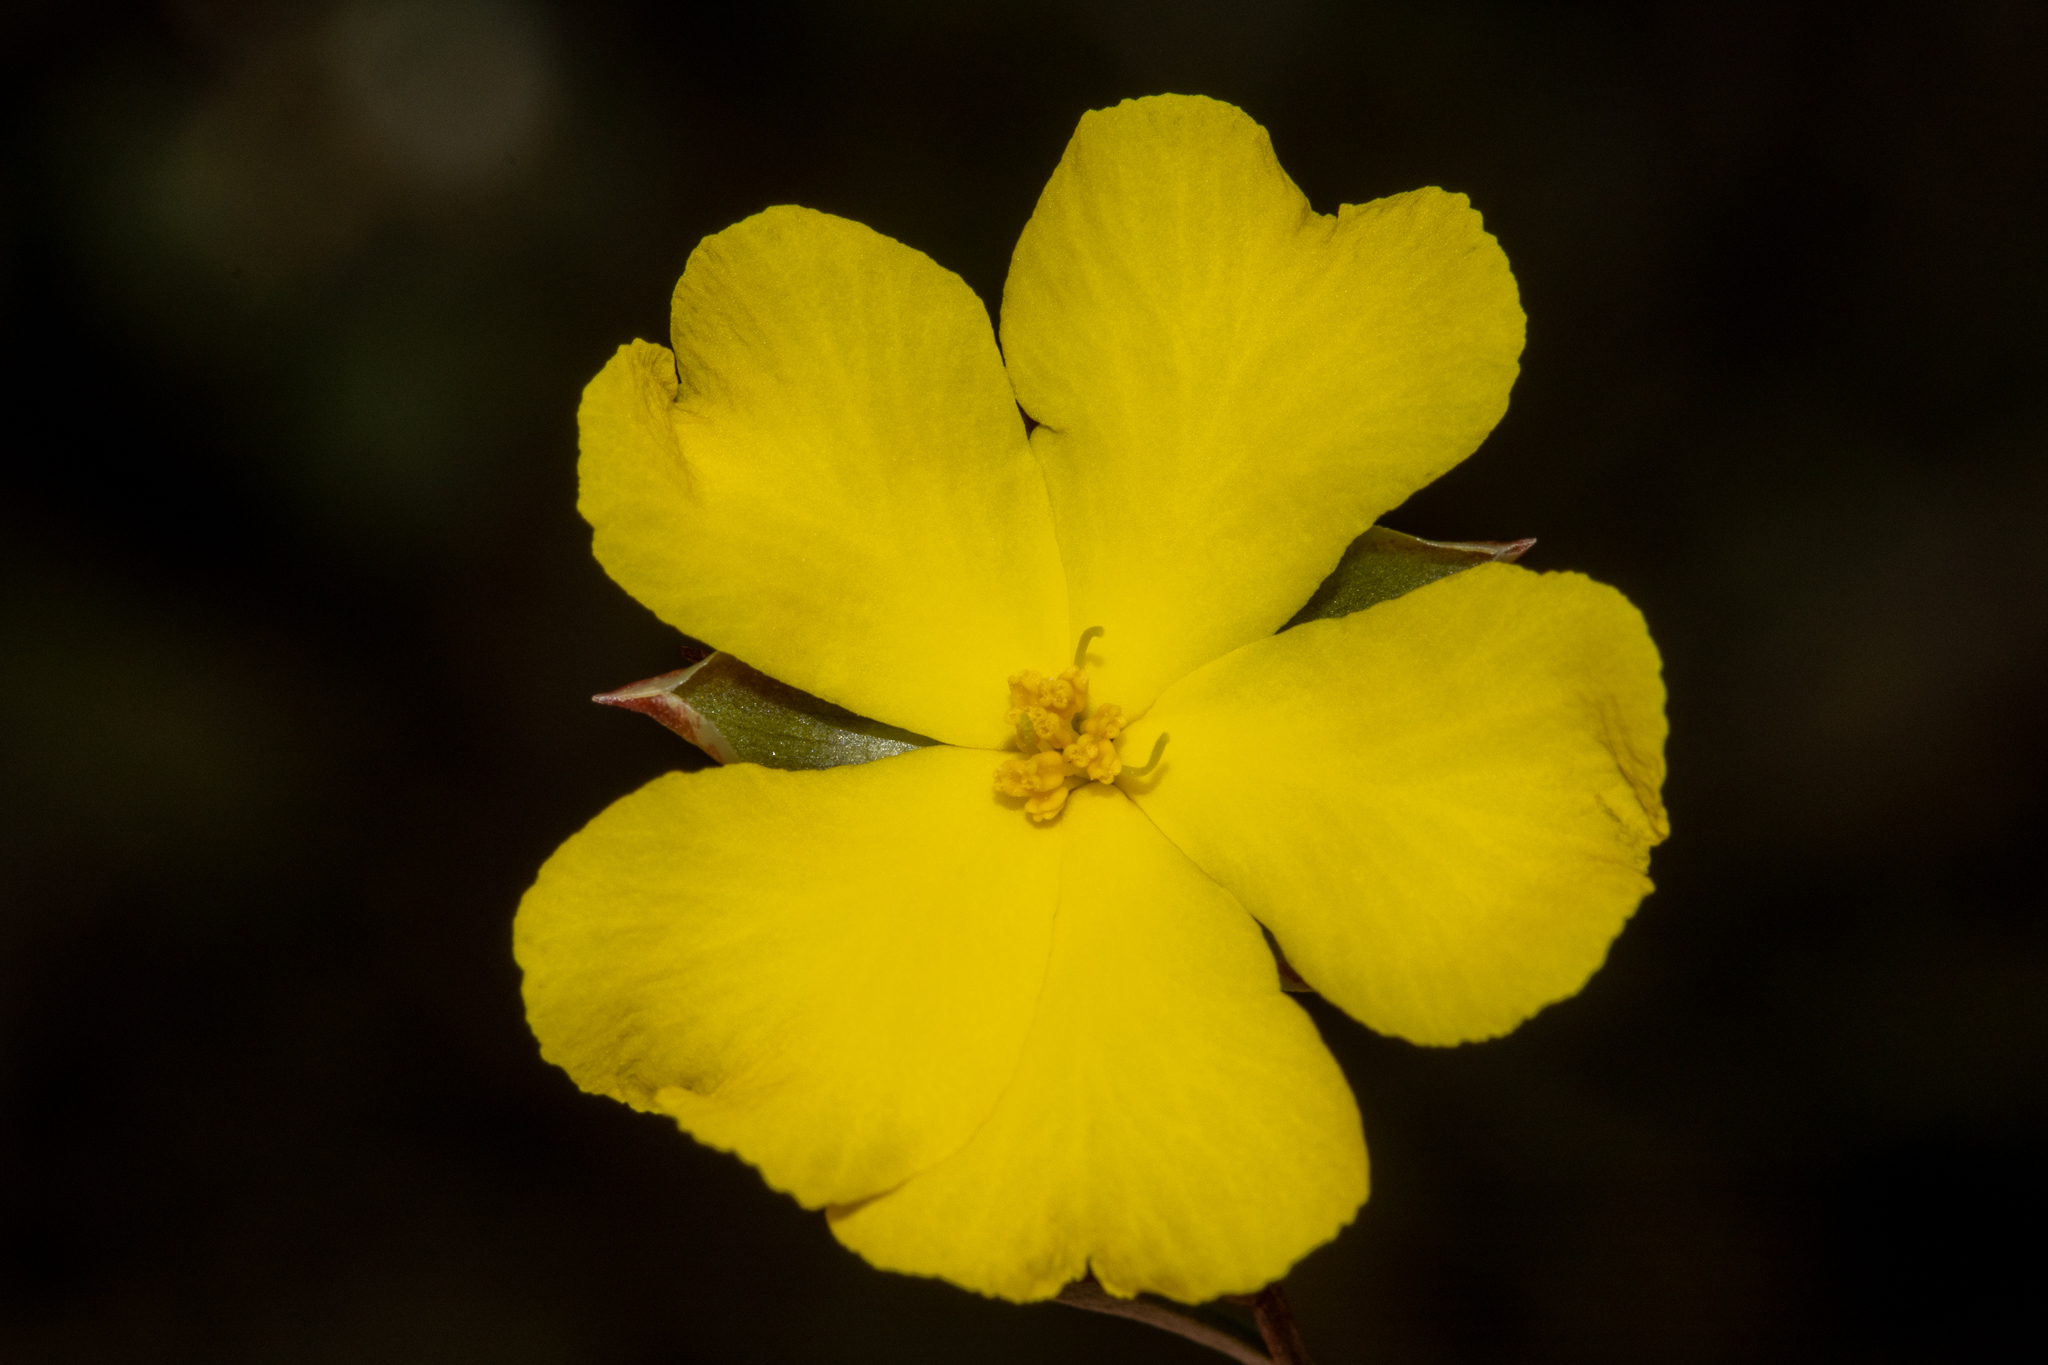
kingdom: Plantae
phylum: Tracheophyta
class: Magnoliopsida
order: Dilleniales
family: Dilleniaceae
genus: Hibbertia
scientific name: Hibbertia virgata
